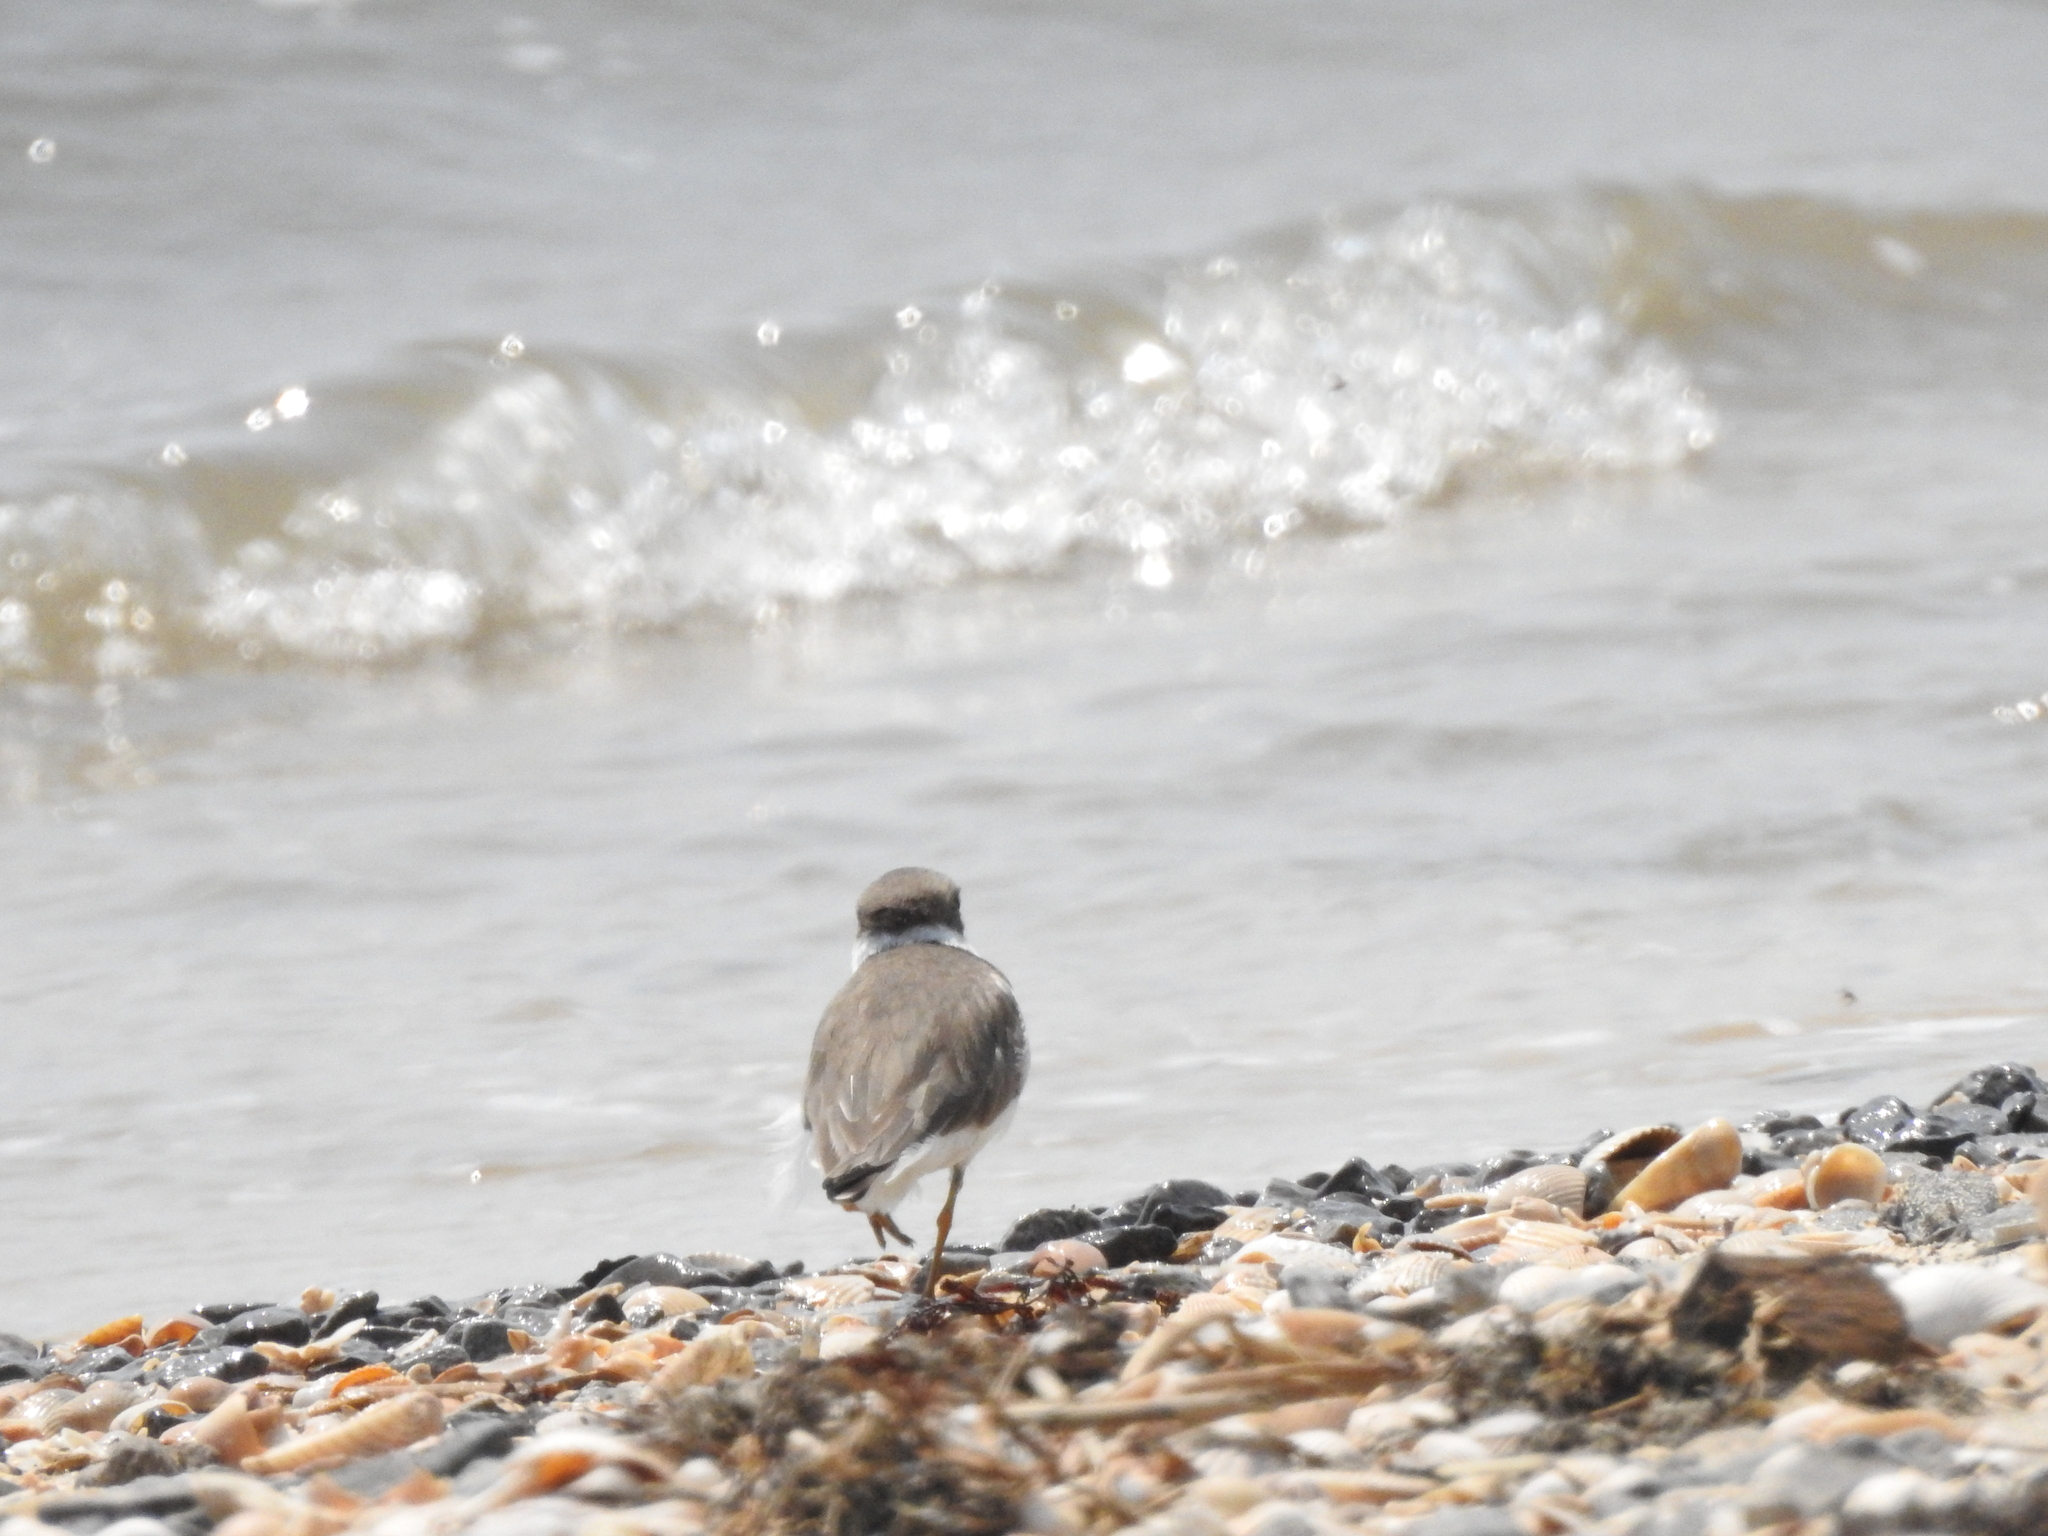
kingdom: Animalia
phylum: Chordata
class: Aves
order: Charadriiformes
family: Charadriidae
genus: Charadrius
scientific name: Charadrius semipalmatus
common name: Semipalmated plover
